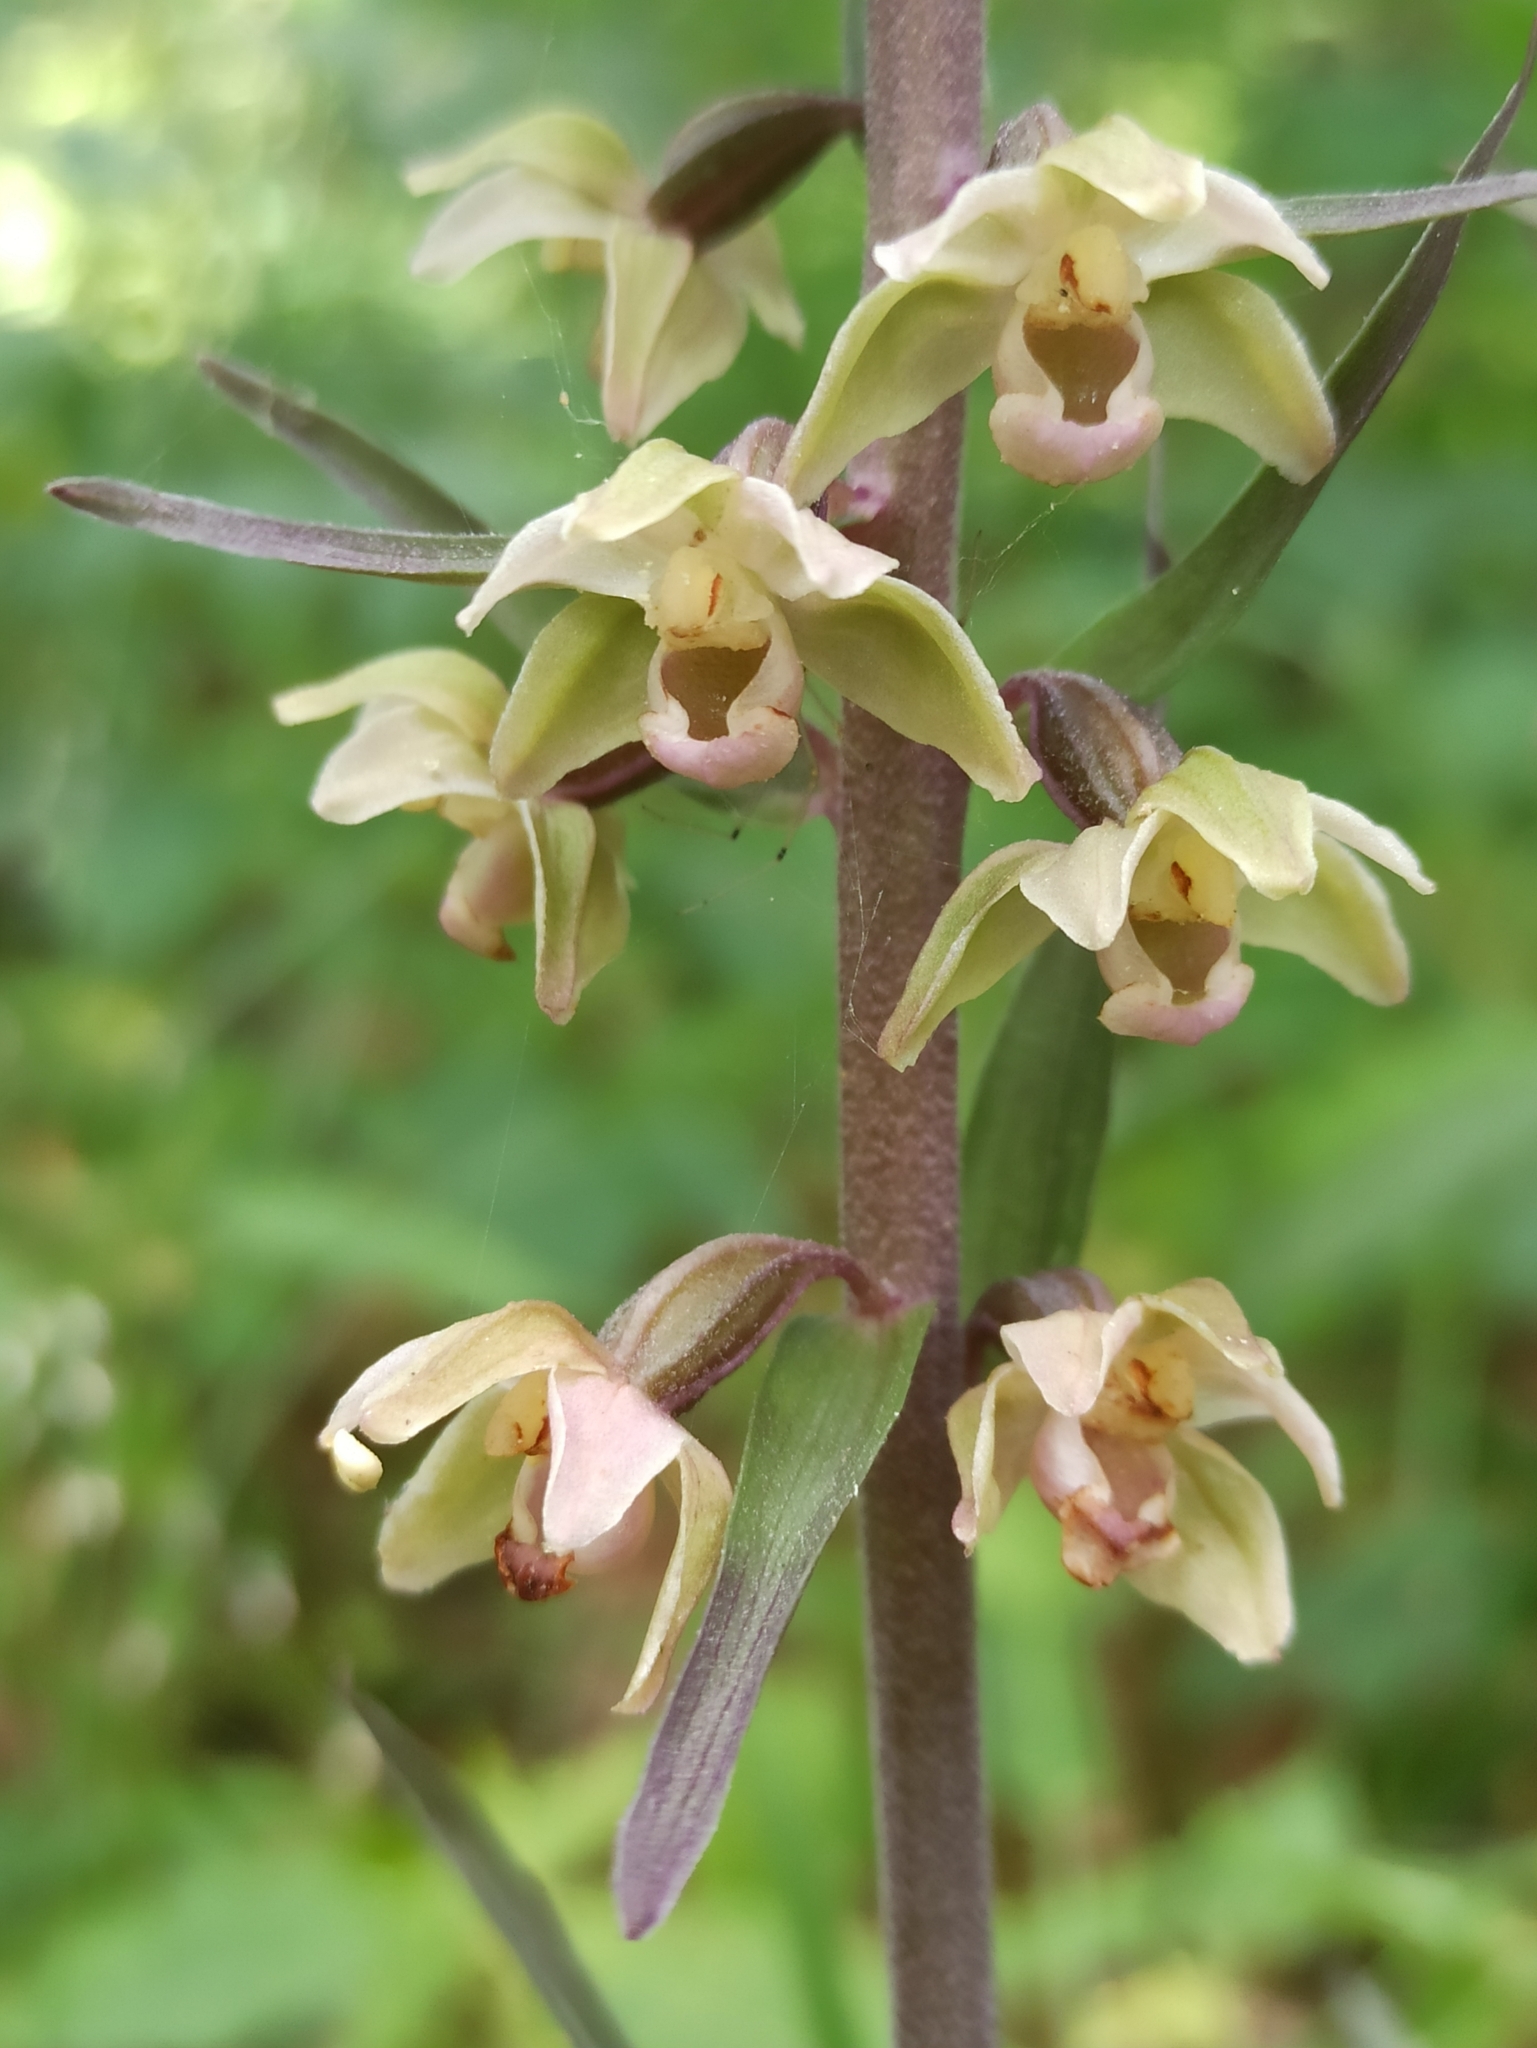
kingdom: Plantae
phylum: Tracheophyta
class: Liliopsida
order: Asparagales
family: Orchidaceae
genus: Epipactis
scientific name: Epipactis purpurata
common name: Violet helleborine
